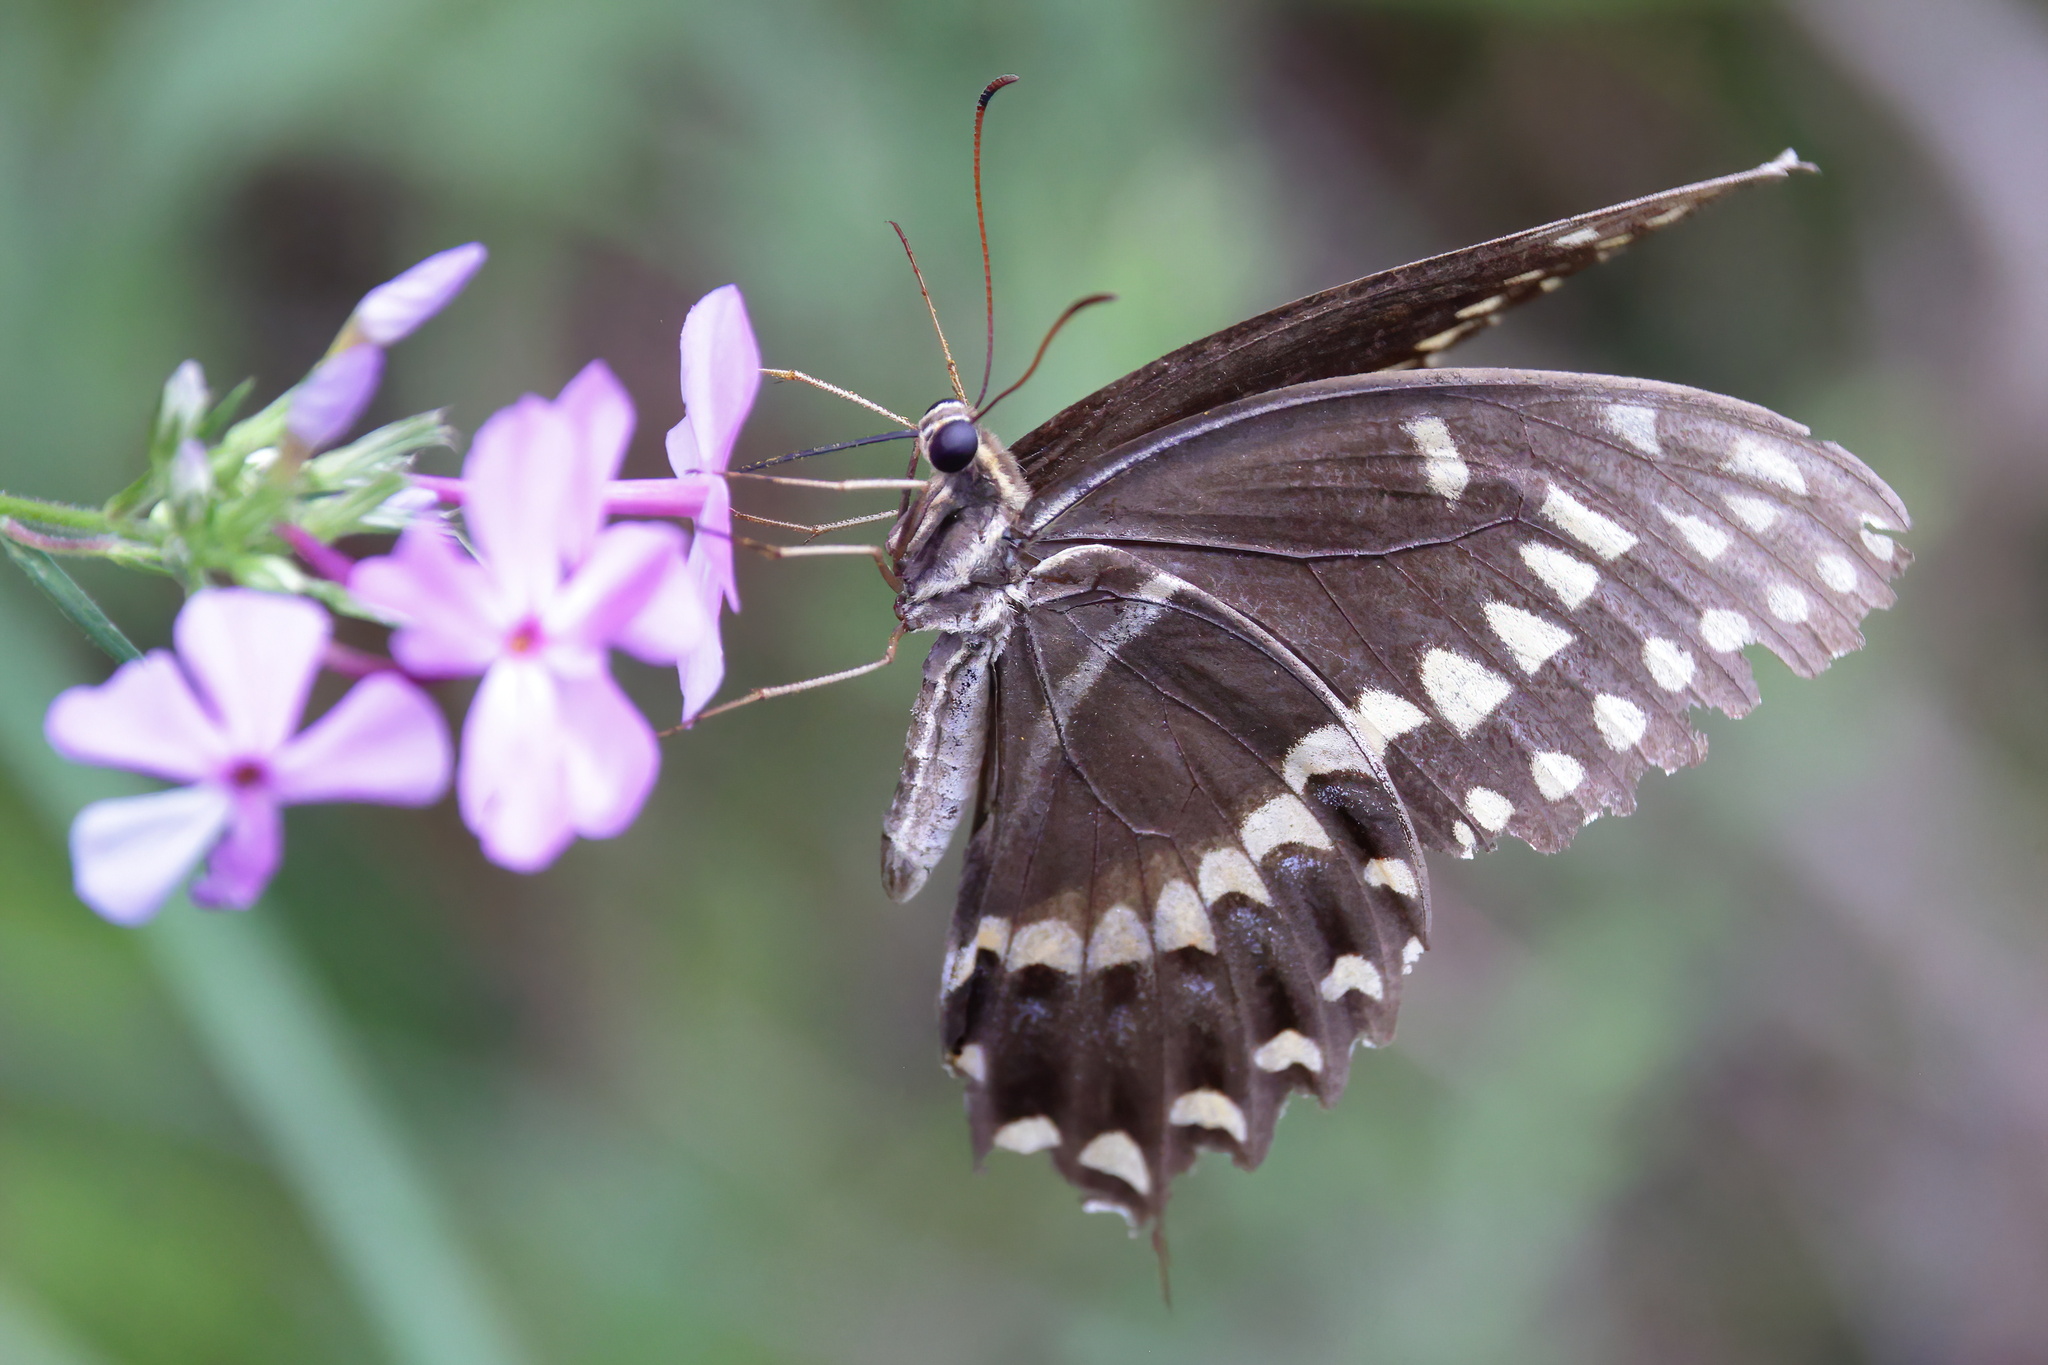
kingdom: Animalia
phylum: Arthropoda
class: Insecta
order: Lepidoptera
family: Papilionidae
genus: Papilio
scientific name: Papilio palamedes
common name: Palamedes swallowtail
